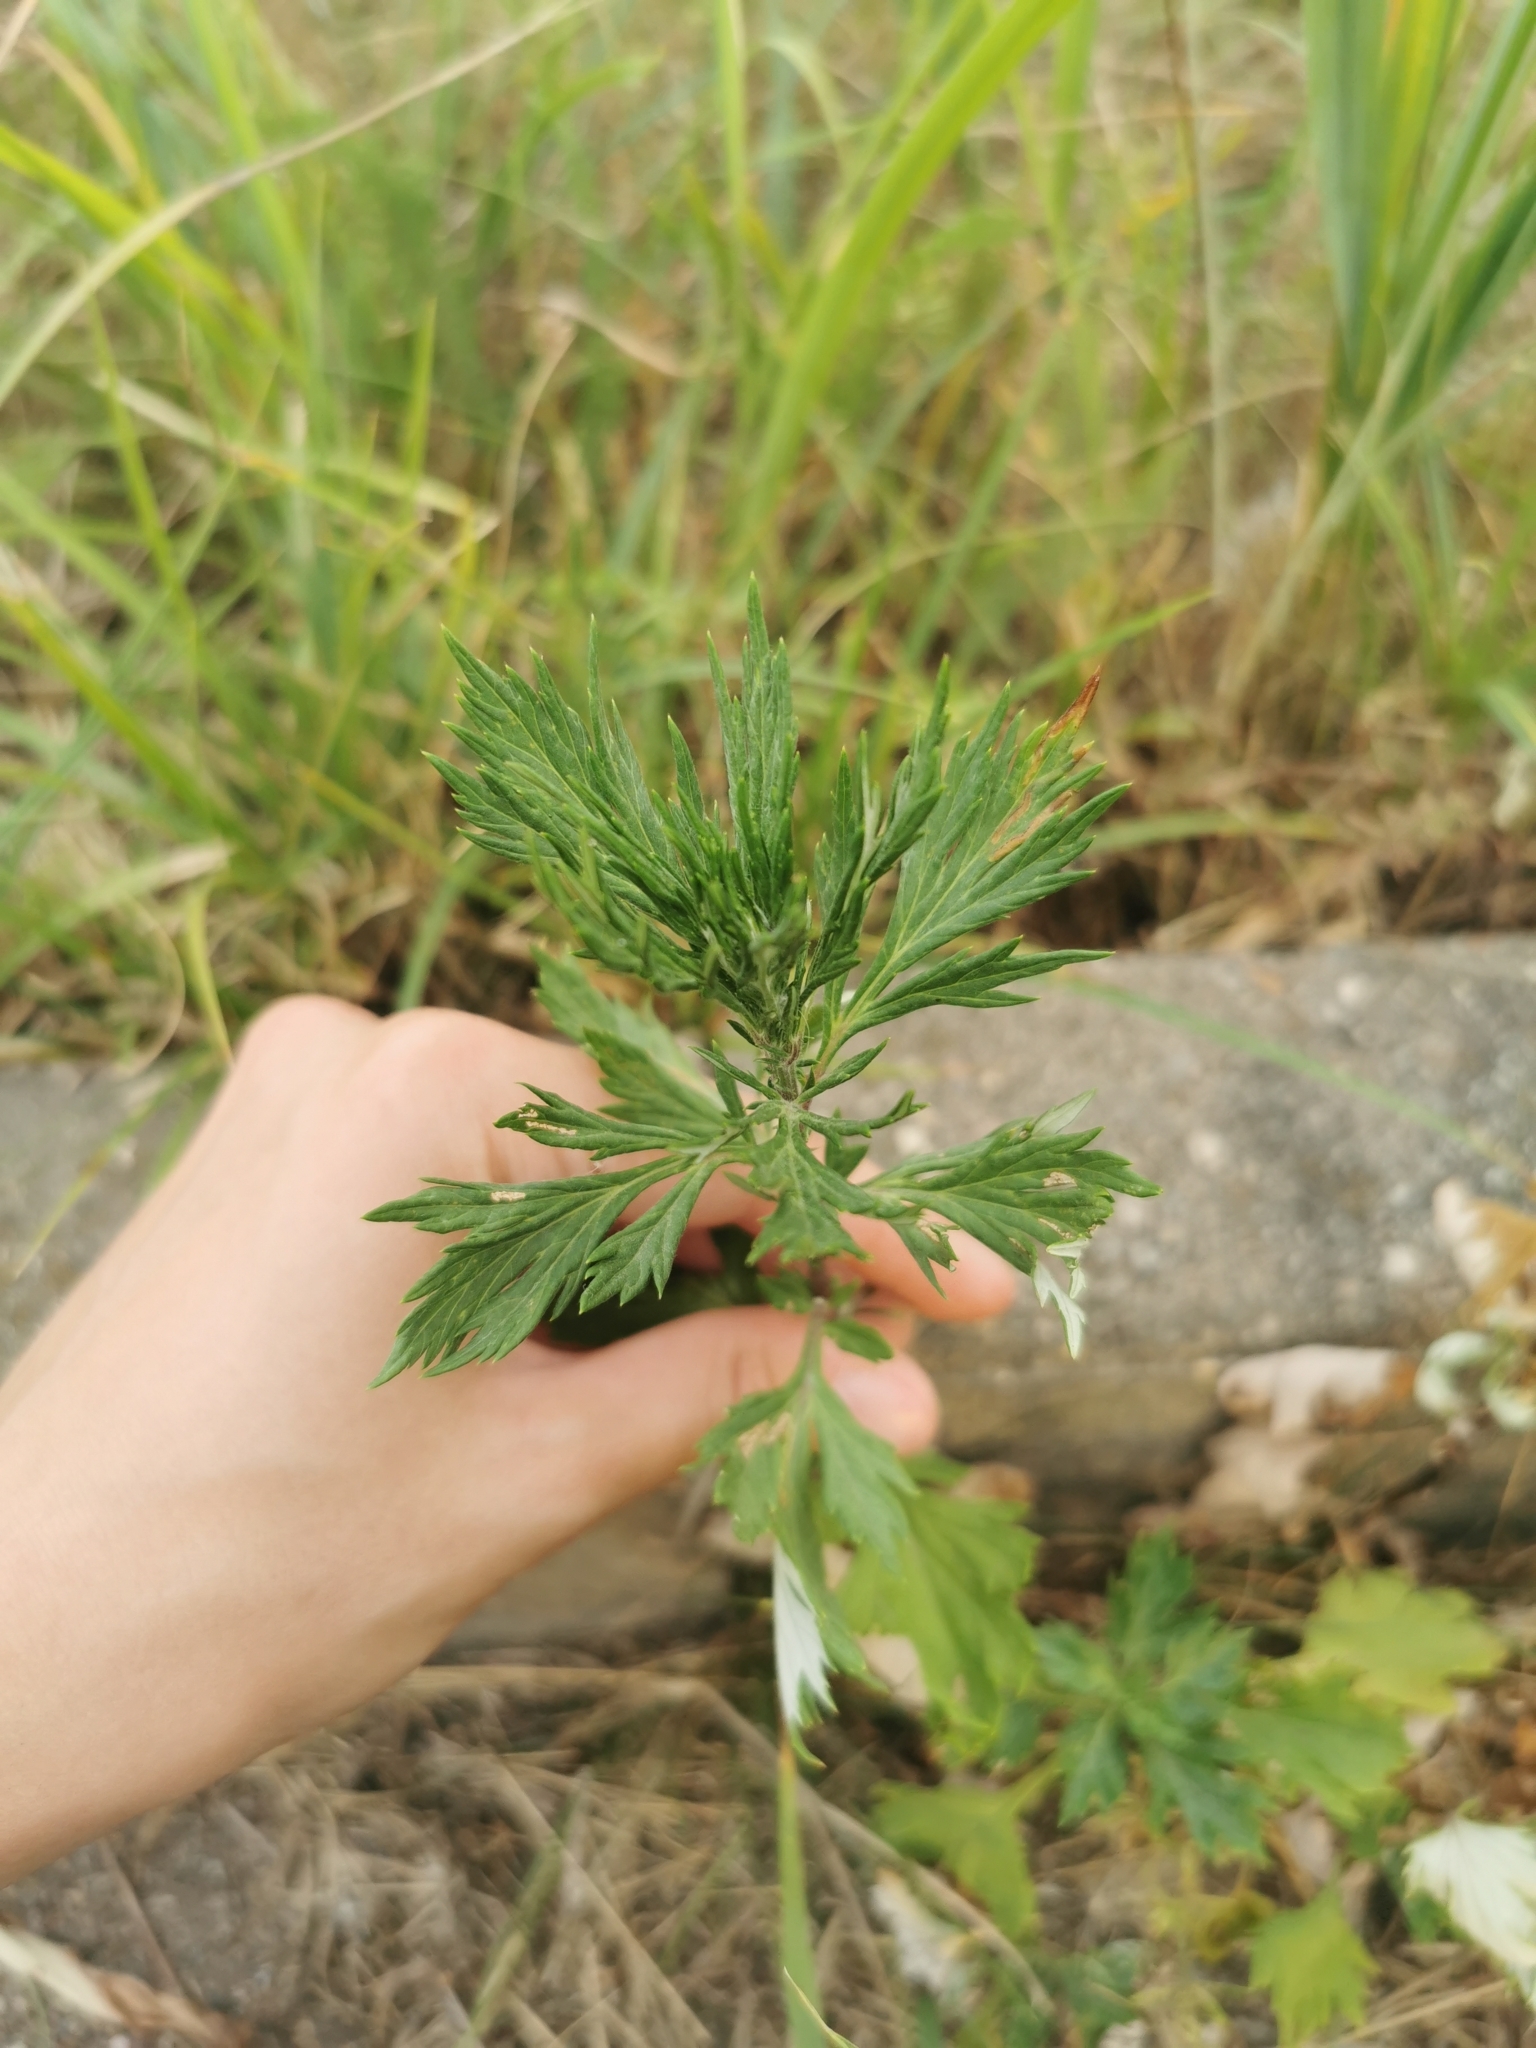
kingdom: Plantae
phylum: Tracheophyta
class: Magnoliopsida
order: Asterales
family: Asteraceae
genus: Artemisia
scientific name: Artemisia vulgaris
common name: Mugwort
